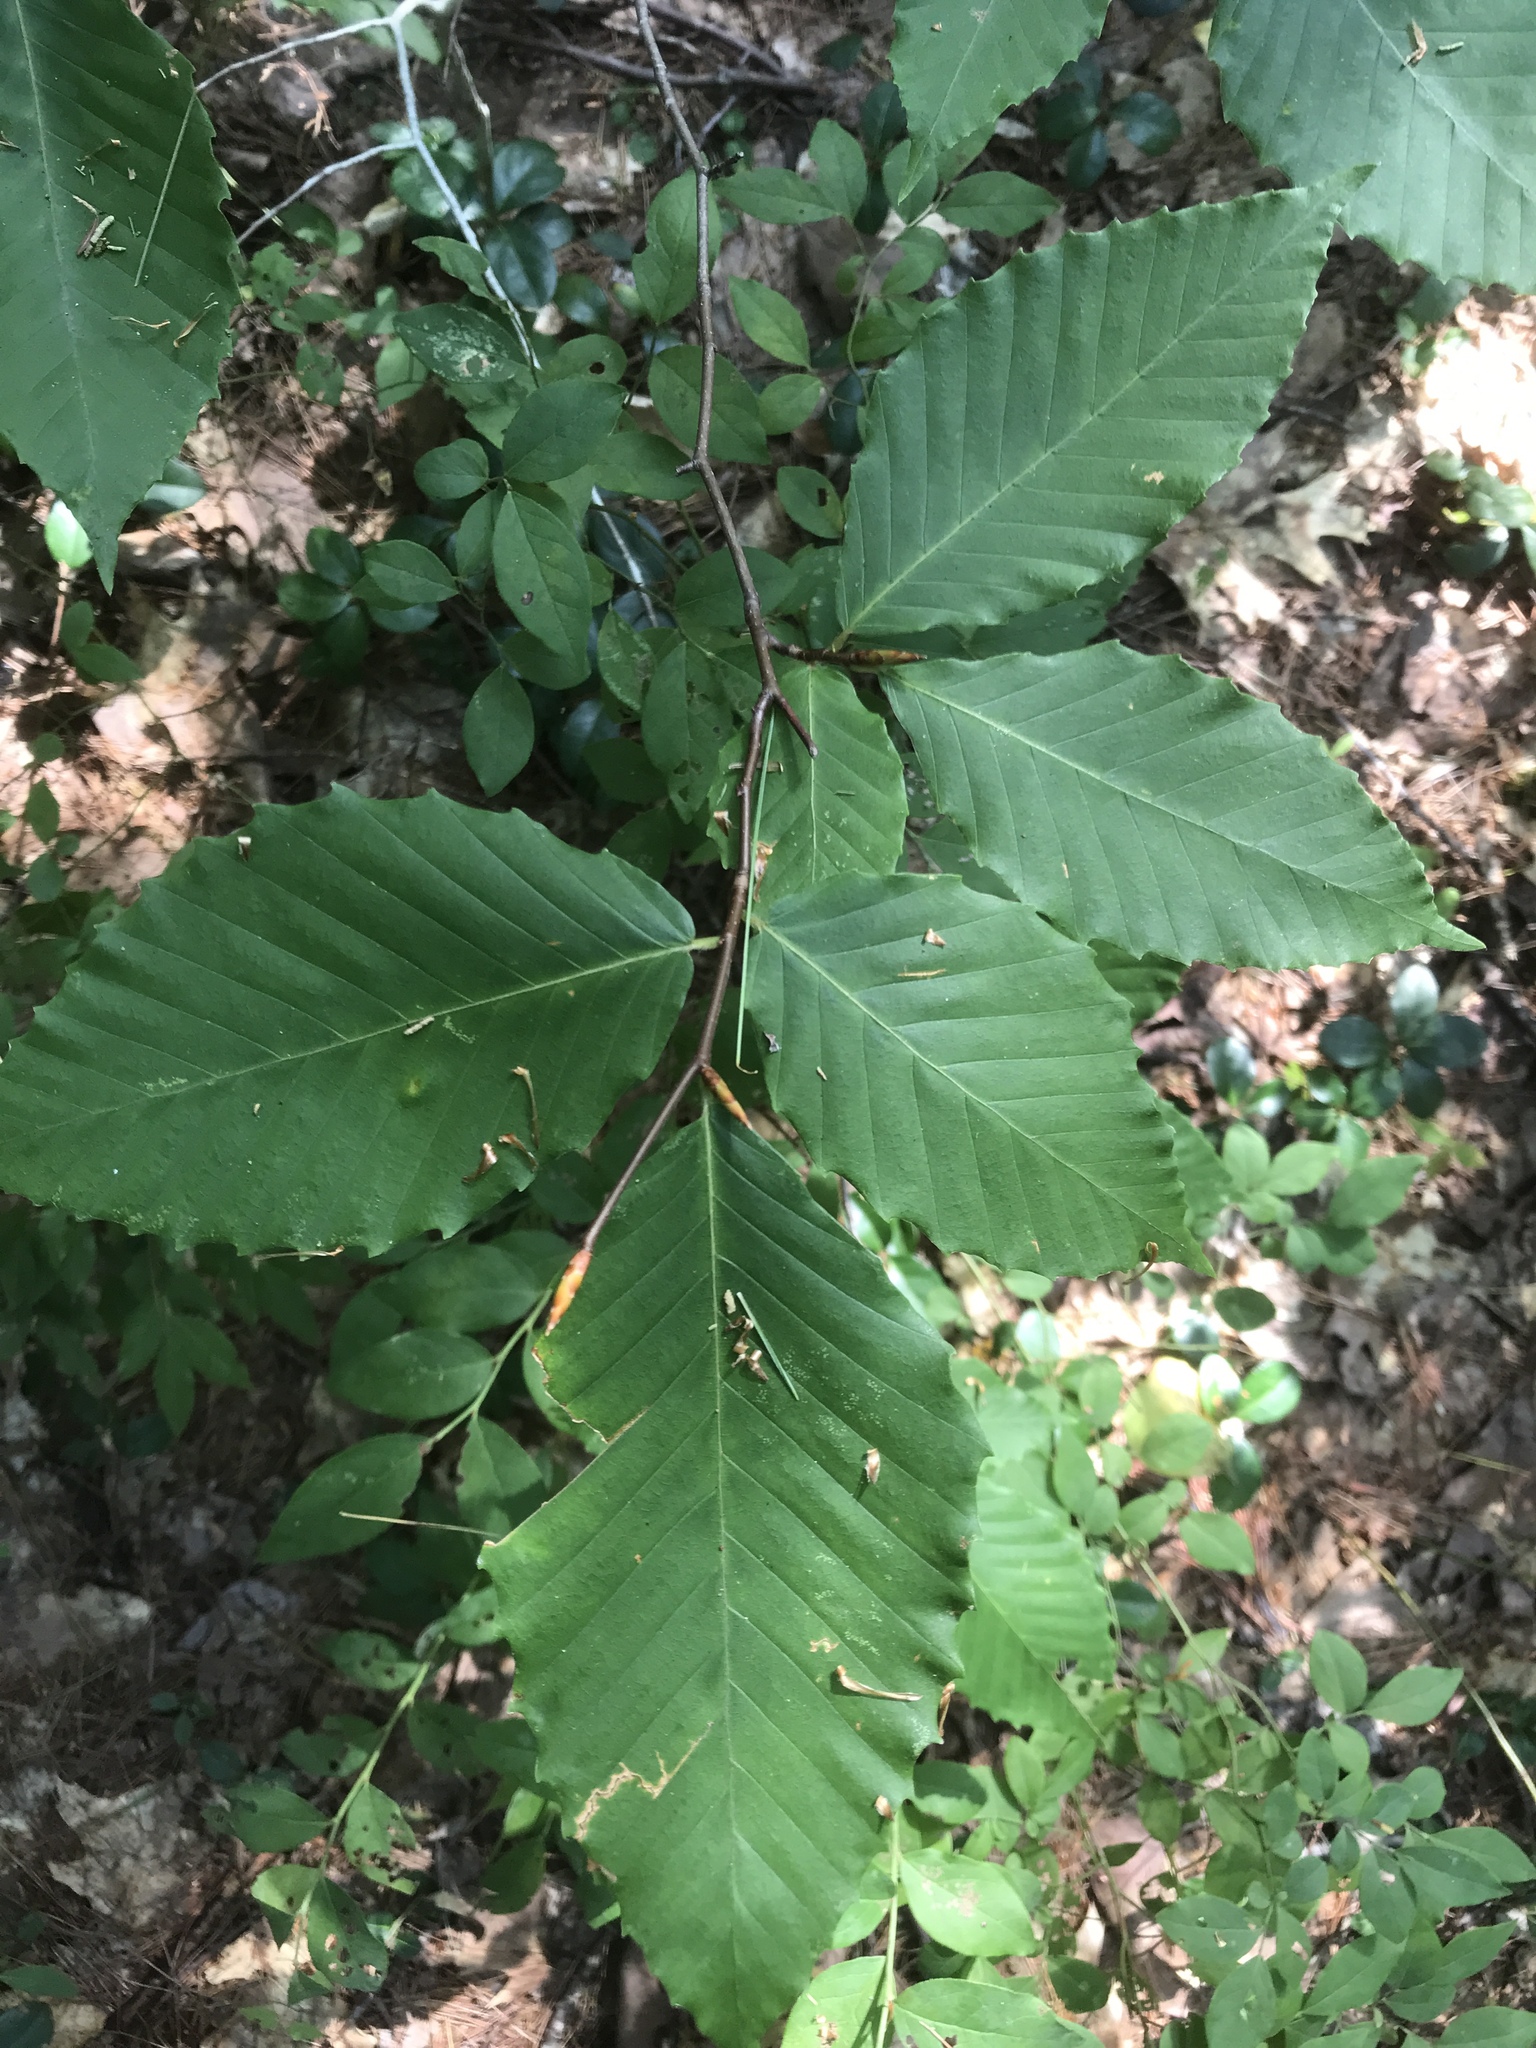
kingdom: Plantae
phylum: Tracheophyta
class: Magnoliopsida
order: Fagales
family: Fagaceae
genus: Fagus
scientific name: Fagus grandifolia
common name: American beech
